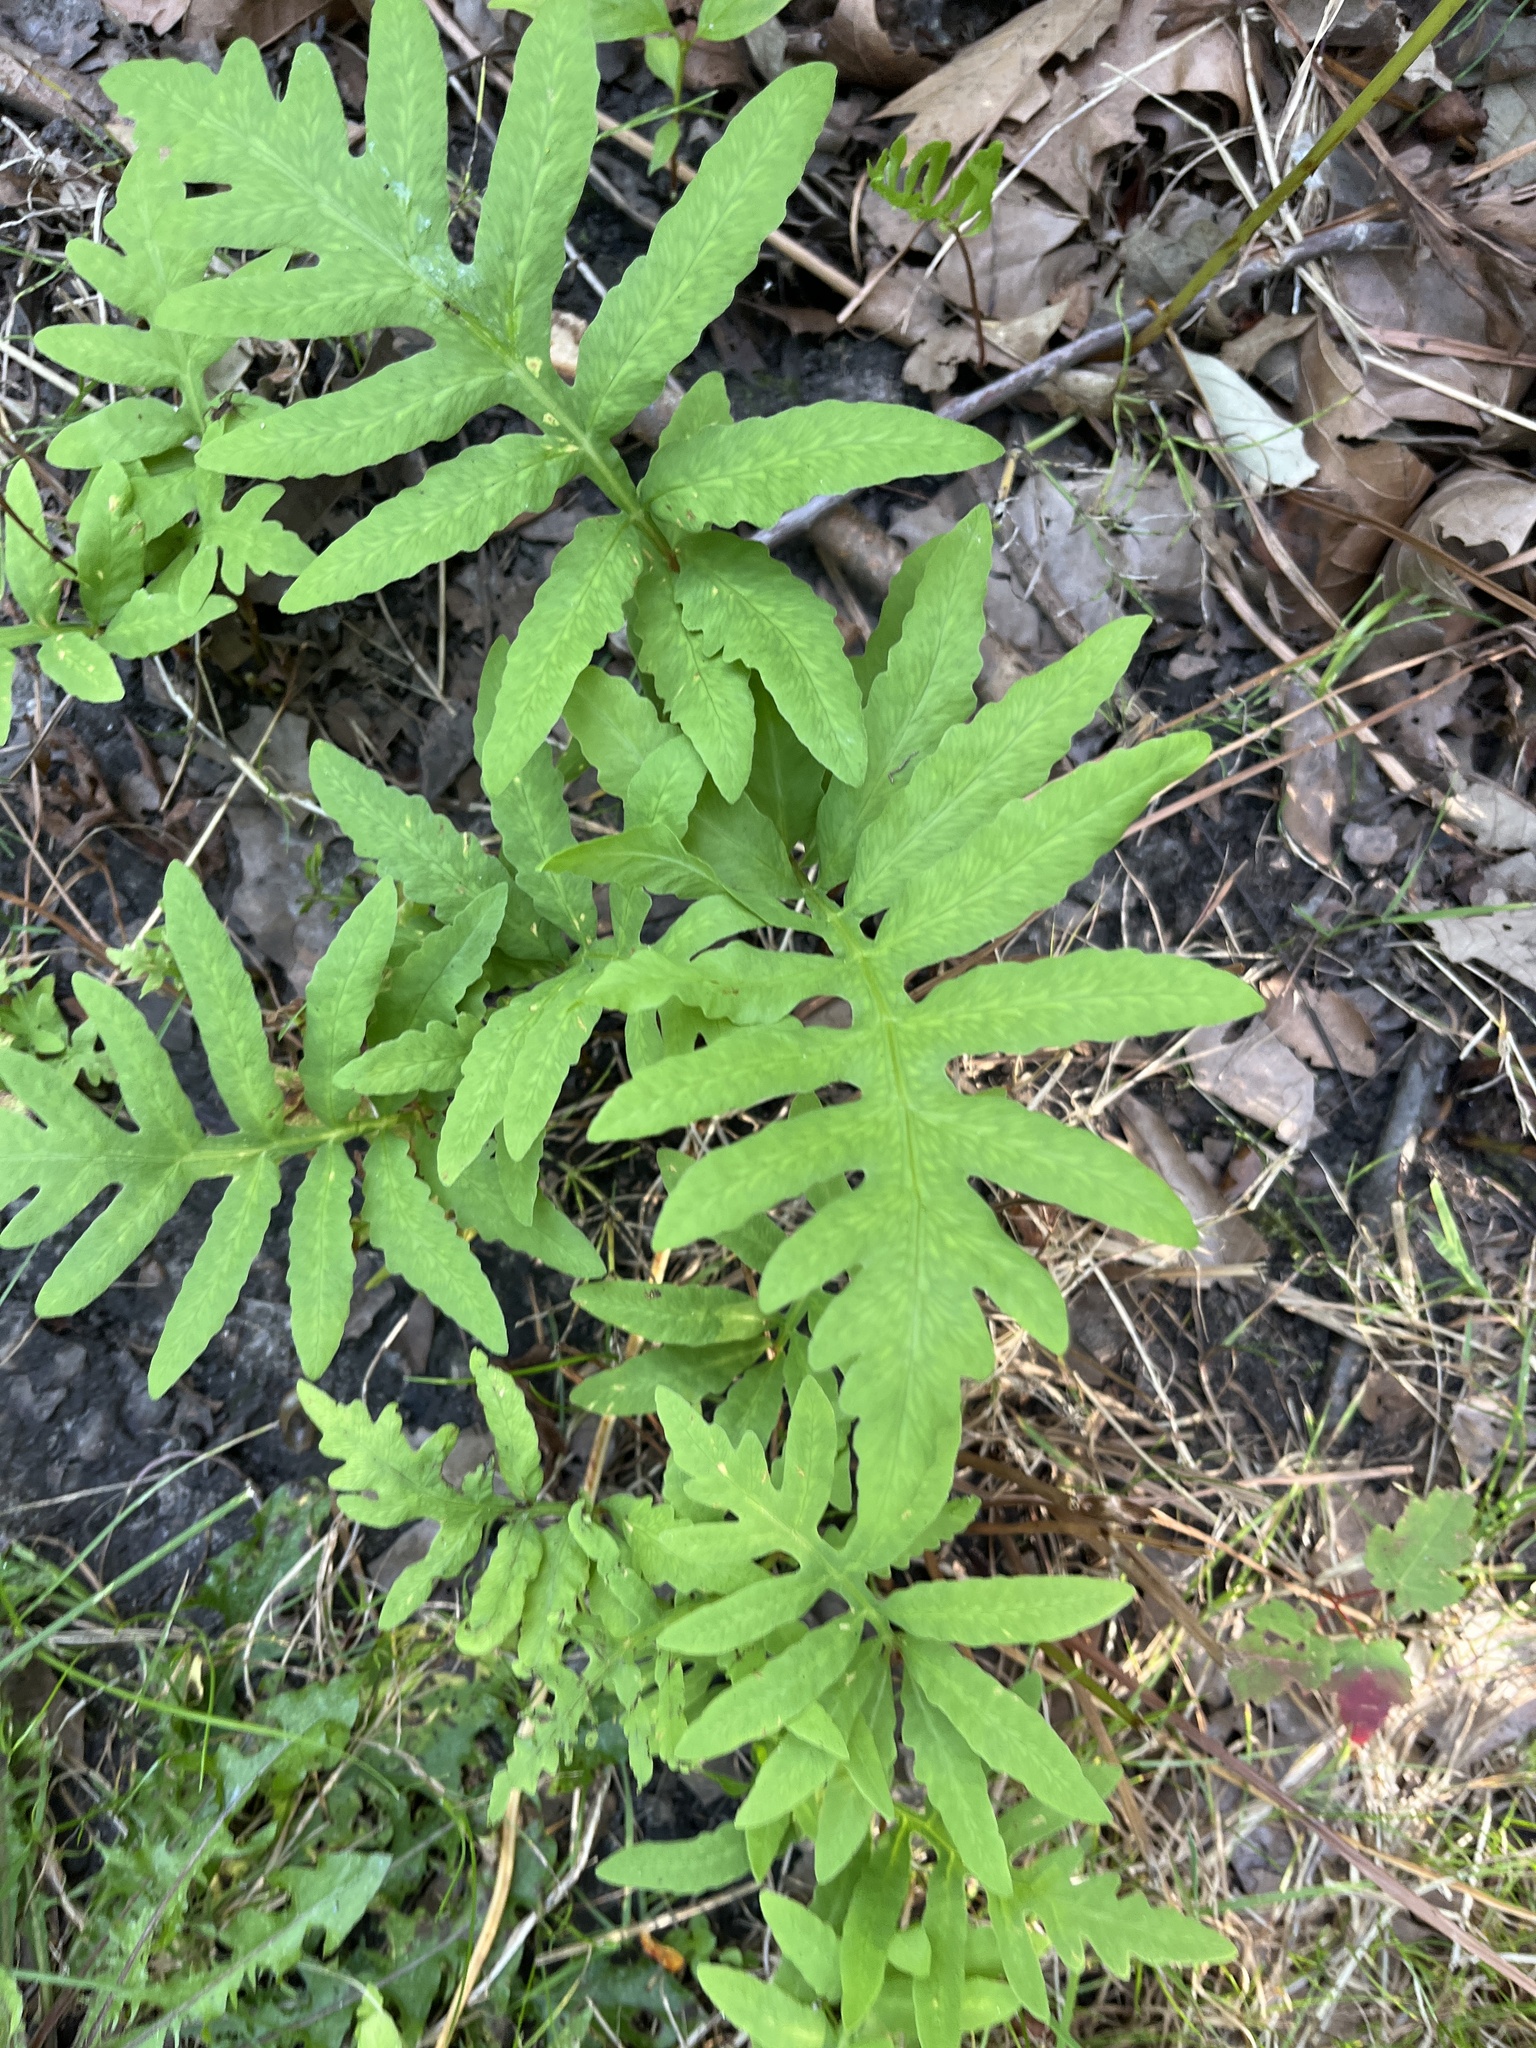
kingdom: Plantae
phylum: Tracheophyta
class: Polypodiopsida
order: Polypodiales
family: Onocleaceae
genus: Onoclea
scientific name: Onoclea sensibilis
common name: Sensitive fern
